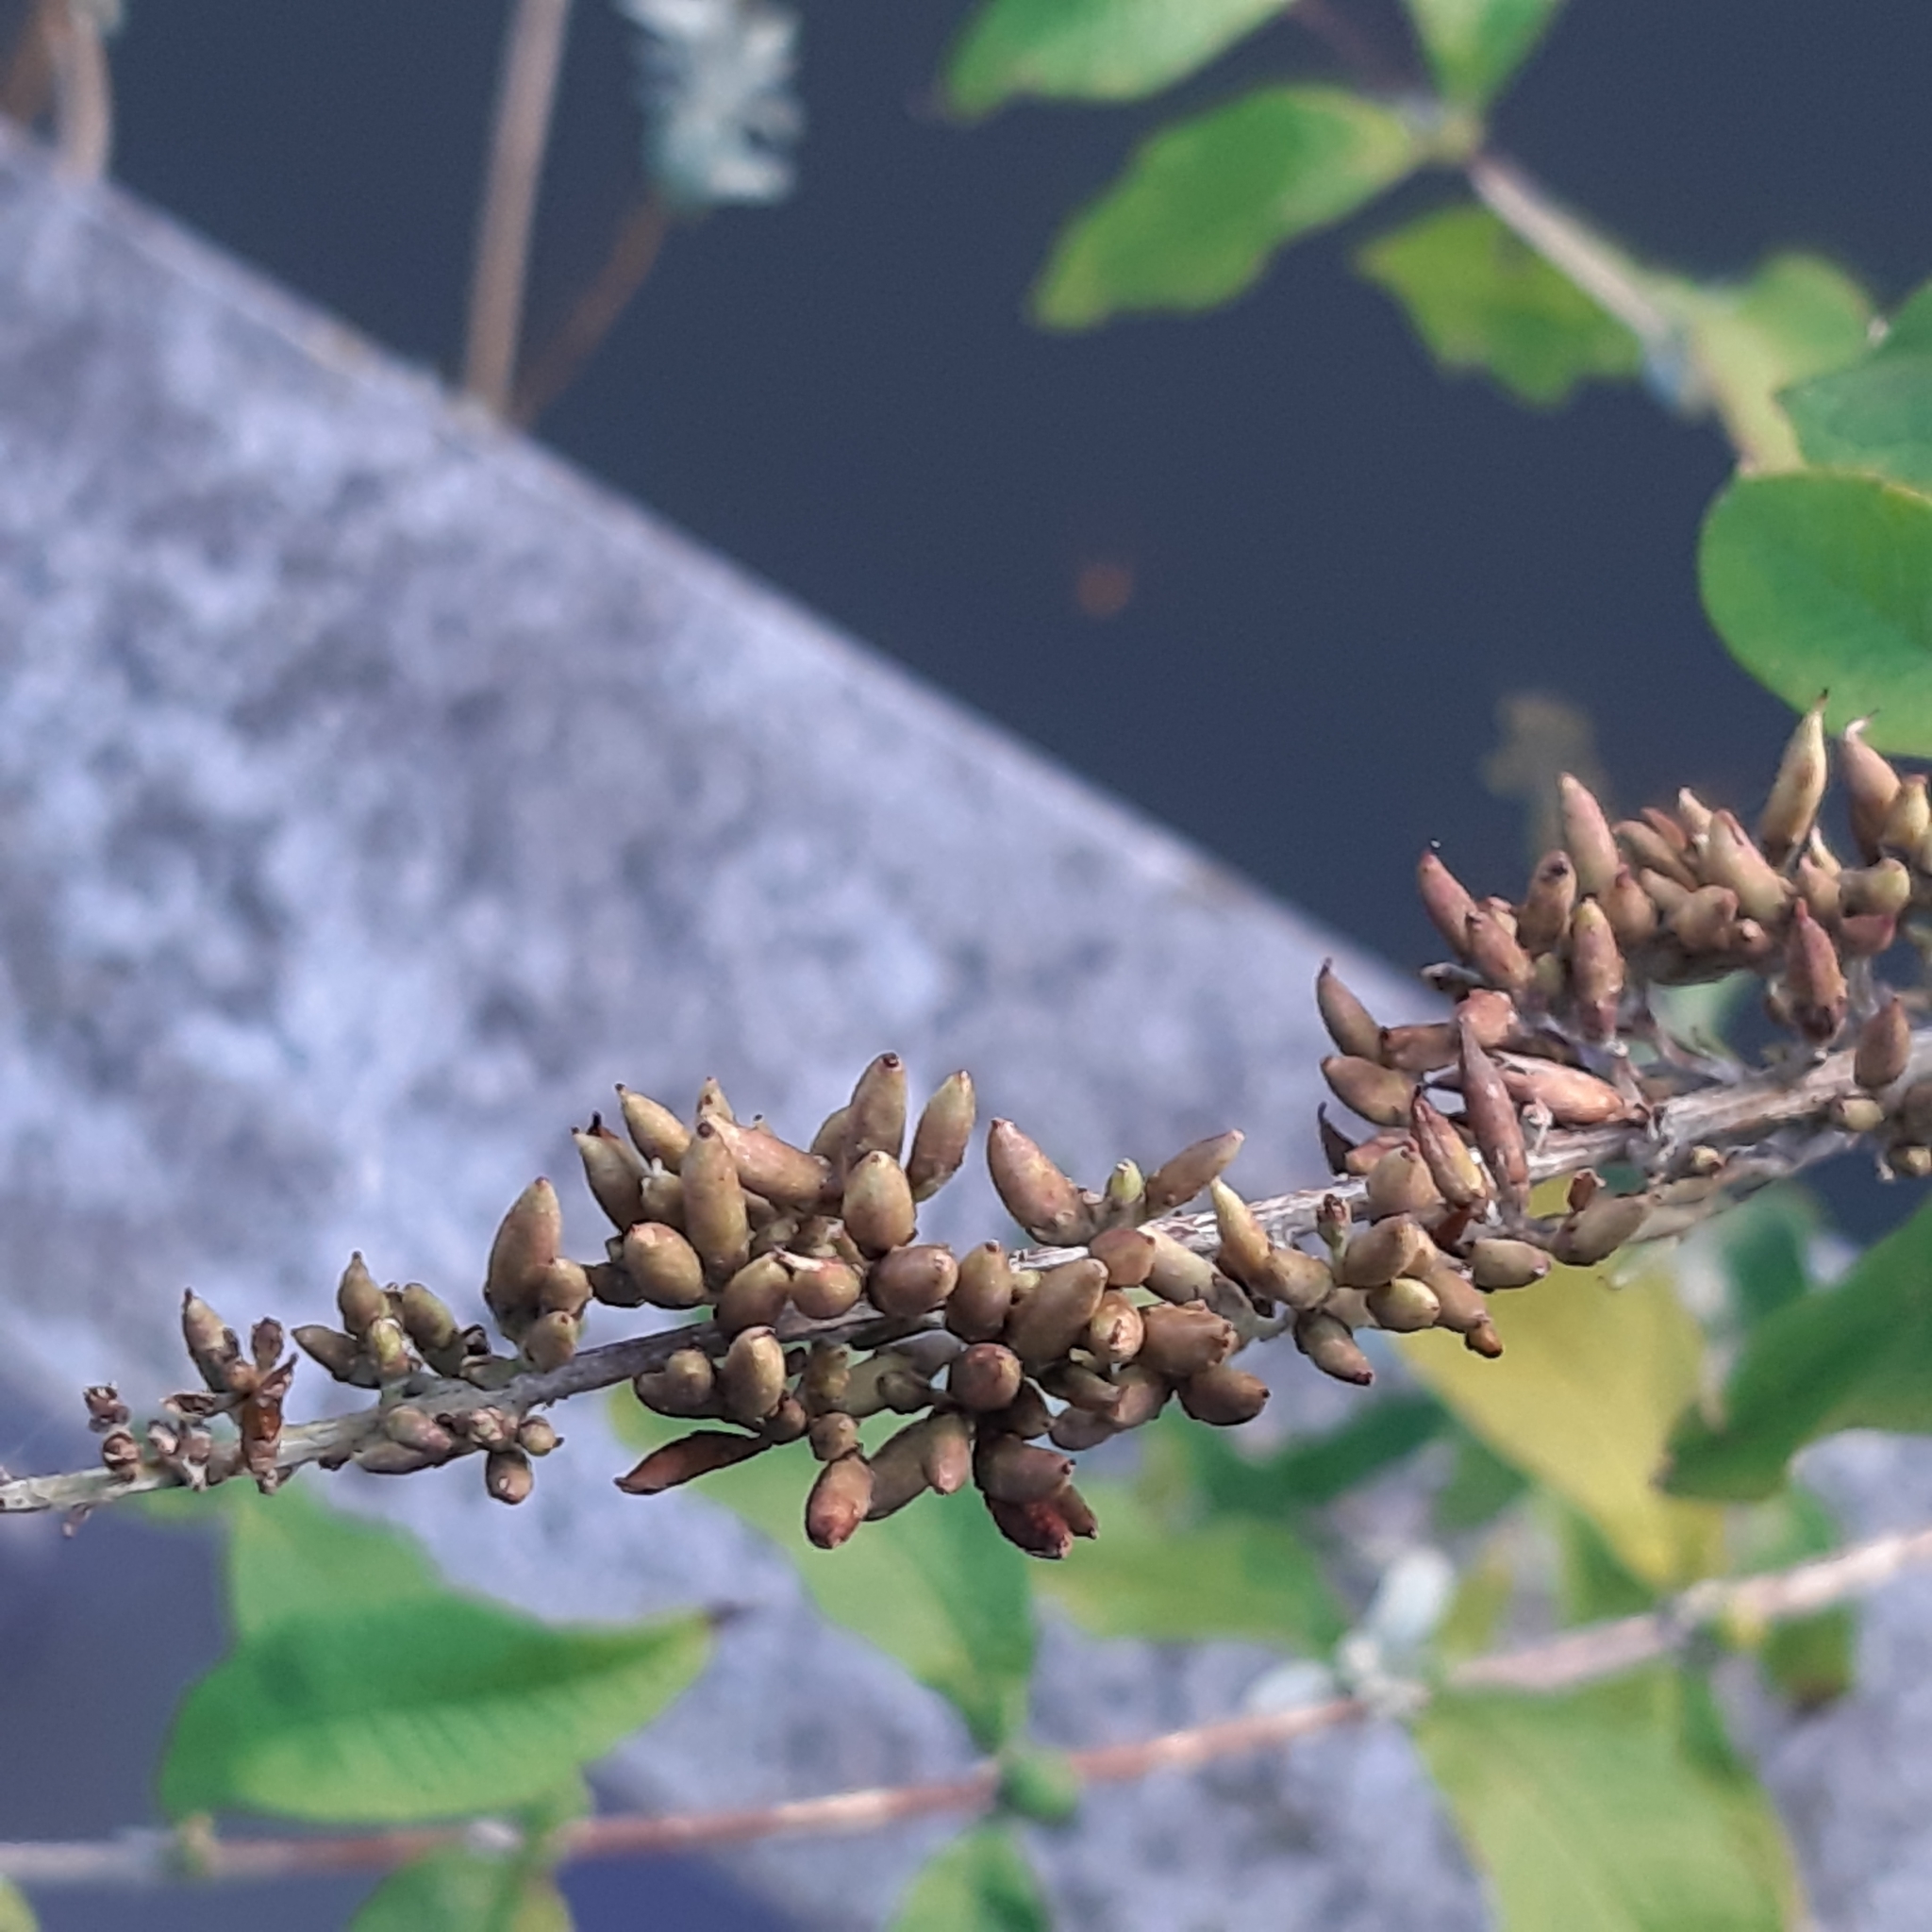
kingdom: Plantae
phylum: Tracheophyta
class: Magnoliopsida
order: Lamiales
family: Scrophulariaceae
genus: Buddleja
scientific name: Buddleja davidii
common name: Butterfly-bush
